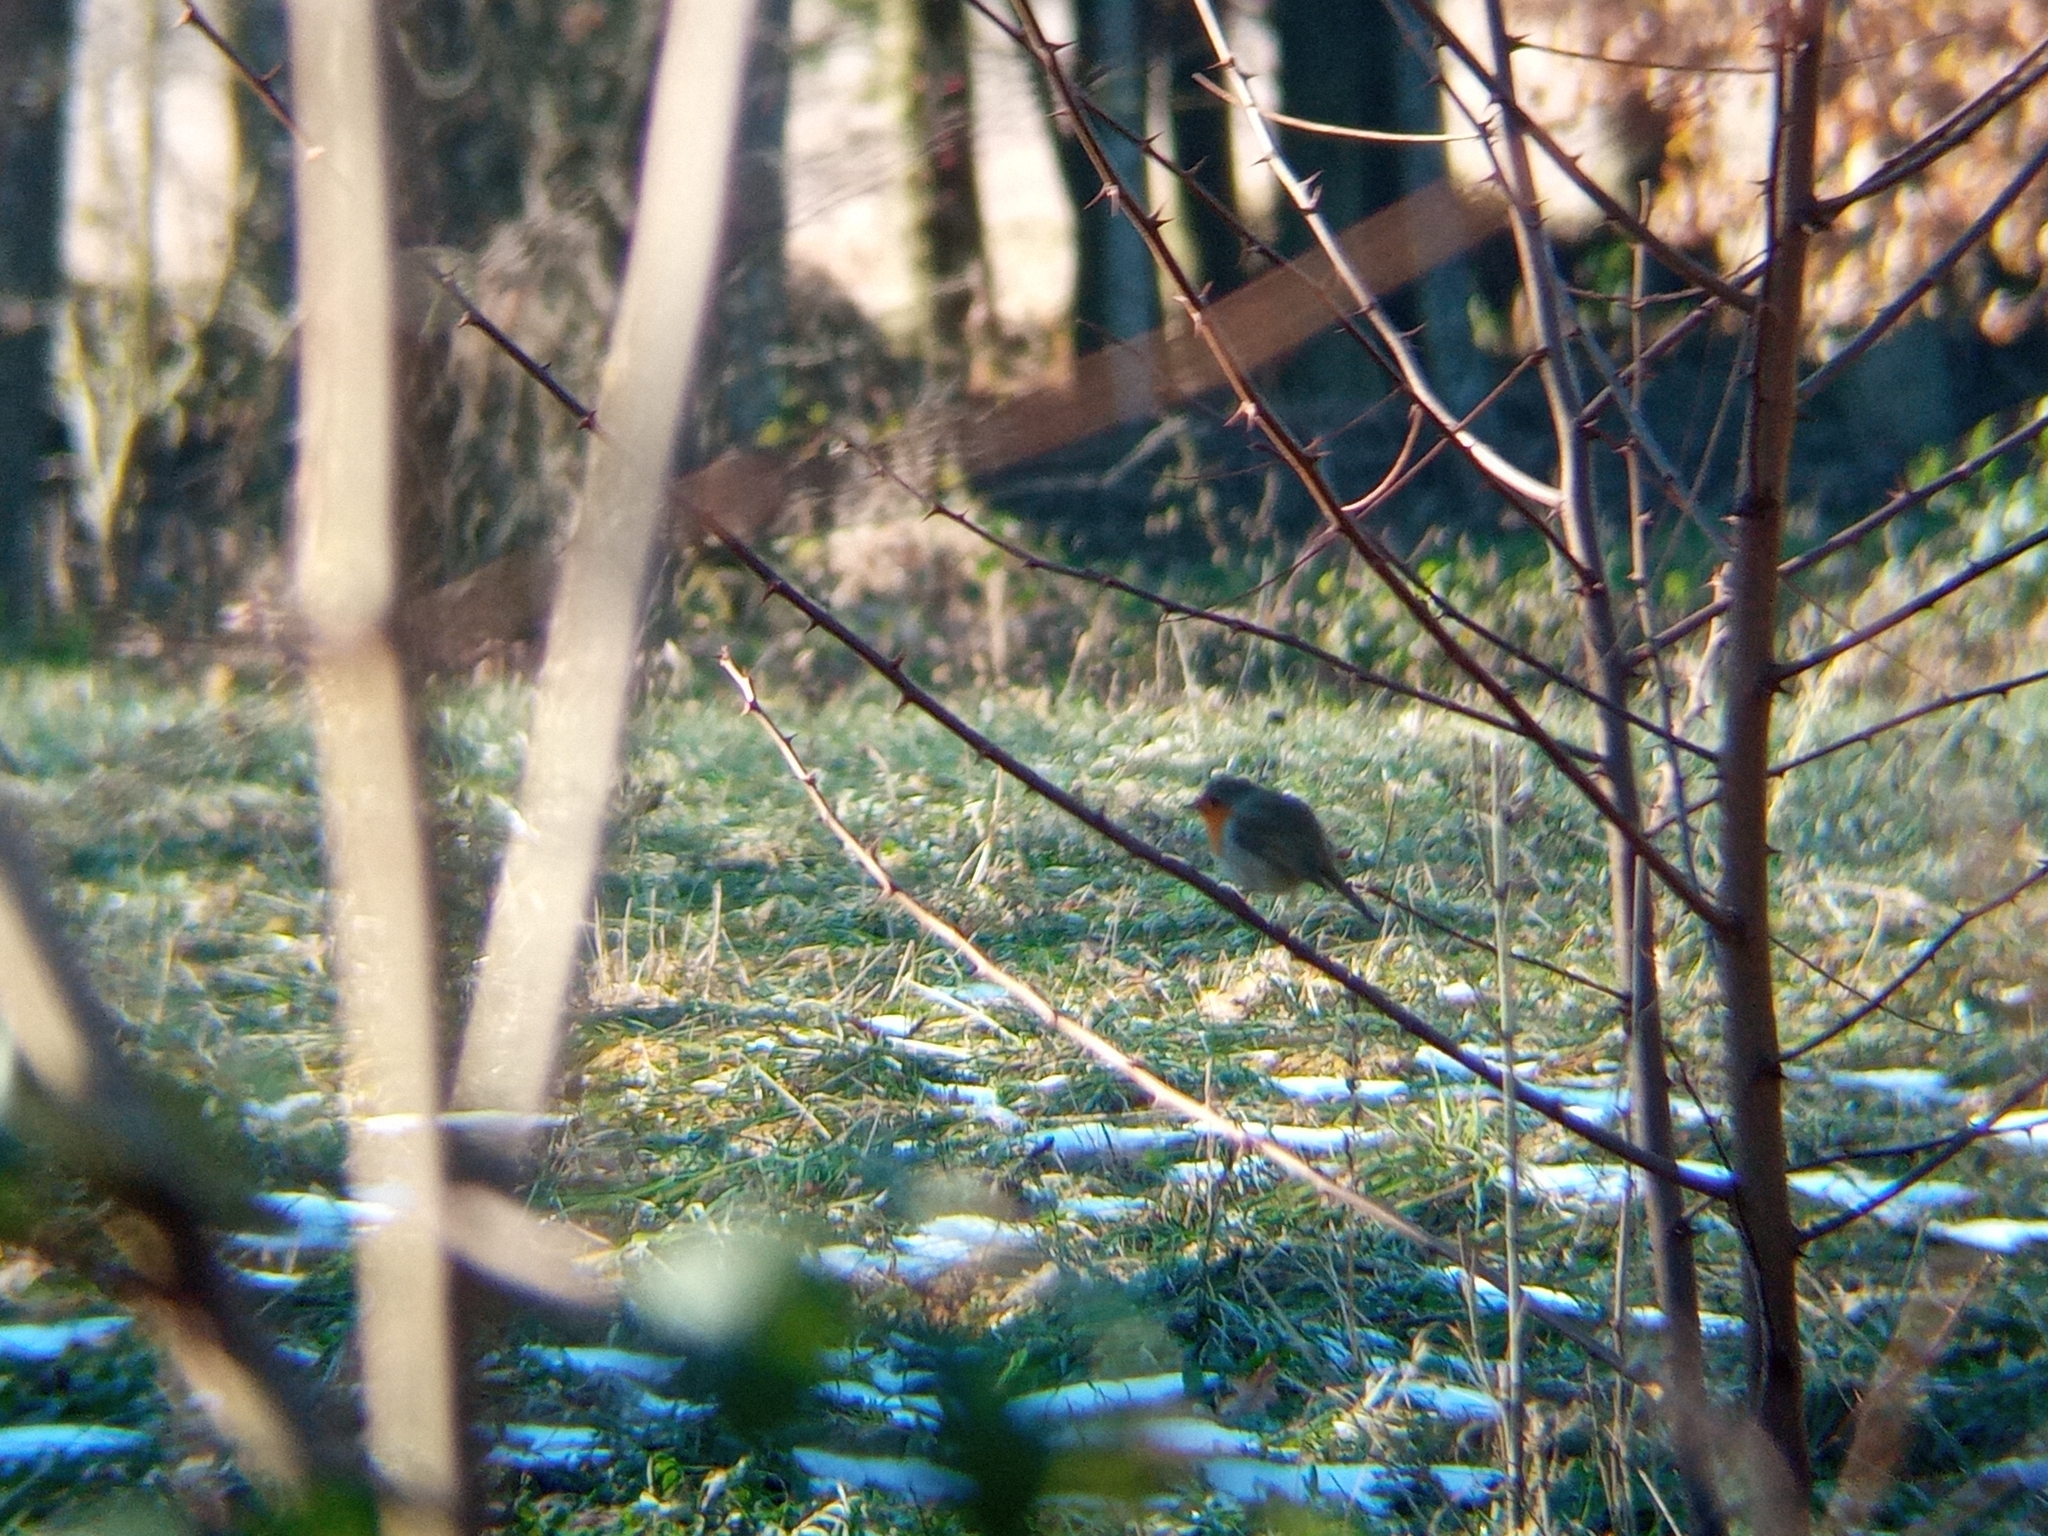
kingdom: Animalia
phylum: Chordata
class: Aves
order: Passeriformes
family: Muscicapidae
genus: Erithacus
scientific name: Erithacus rubecula
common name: European robin
